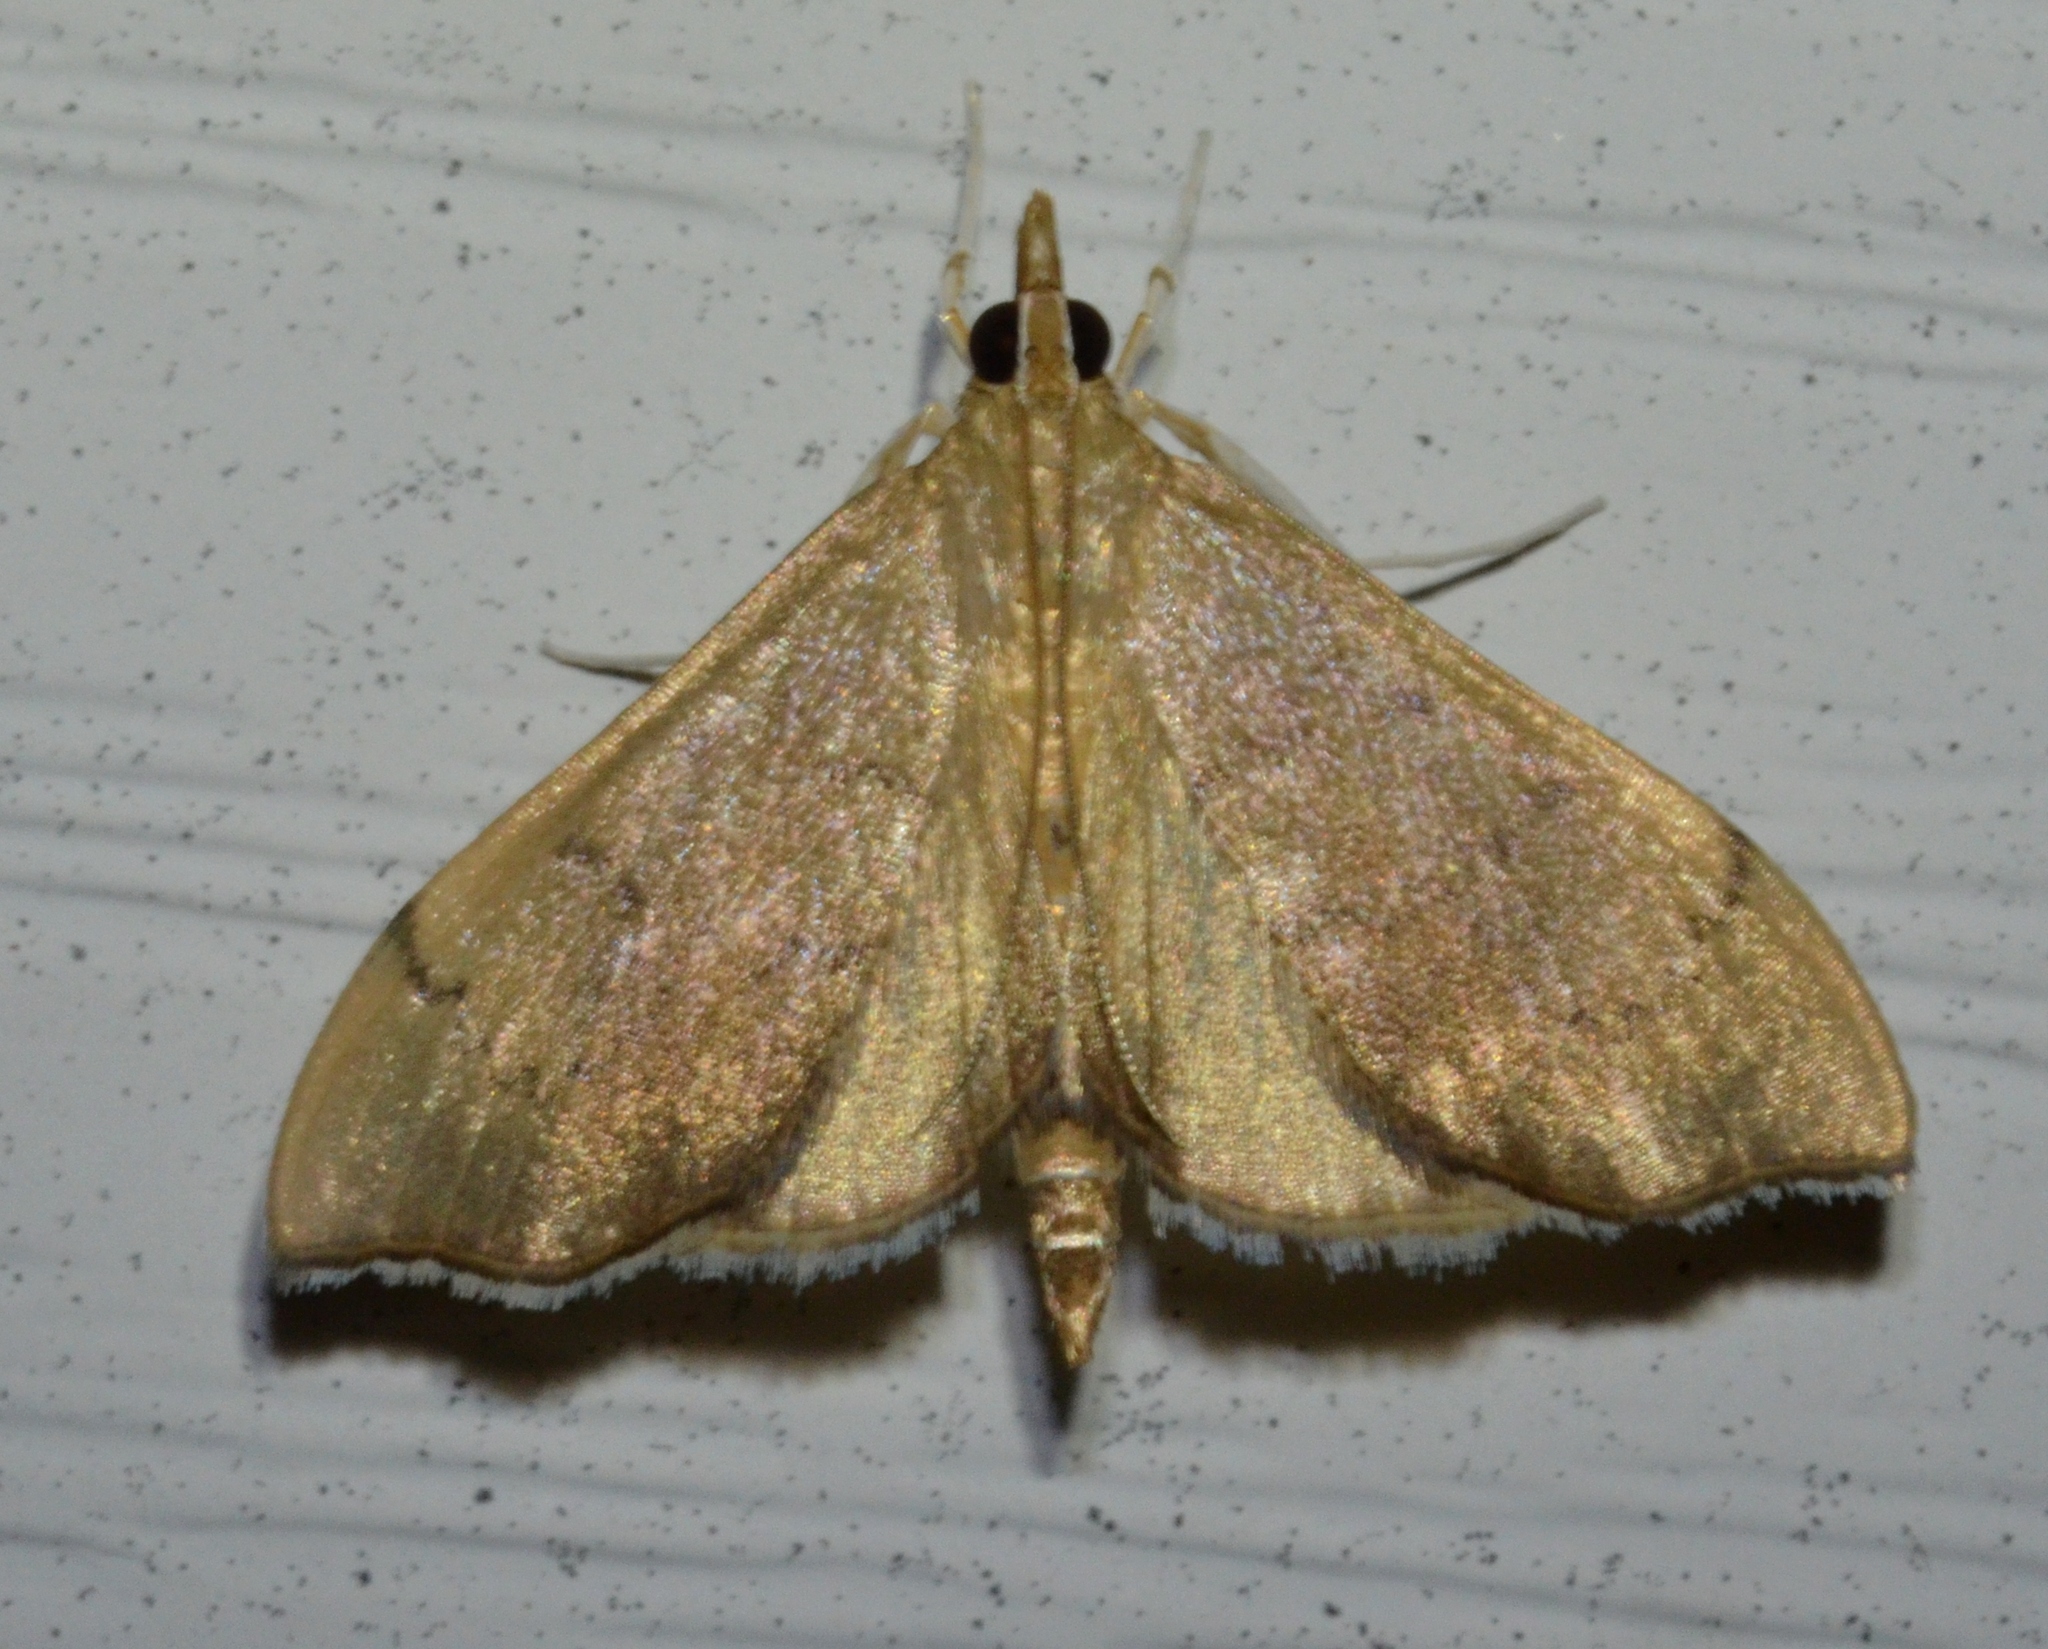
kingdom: Animalia
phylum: Arthropoda
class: Insecta
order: Lepidoptera
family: Crambidae
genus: Sericoplaga
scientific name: Sericoplaga externalis
